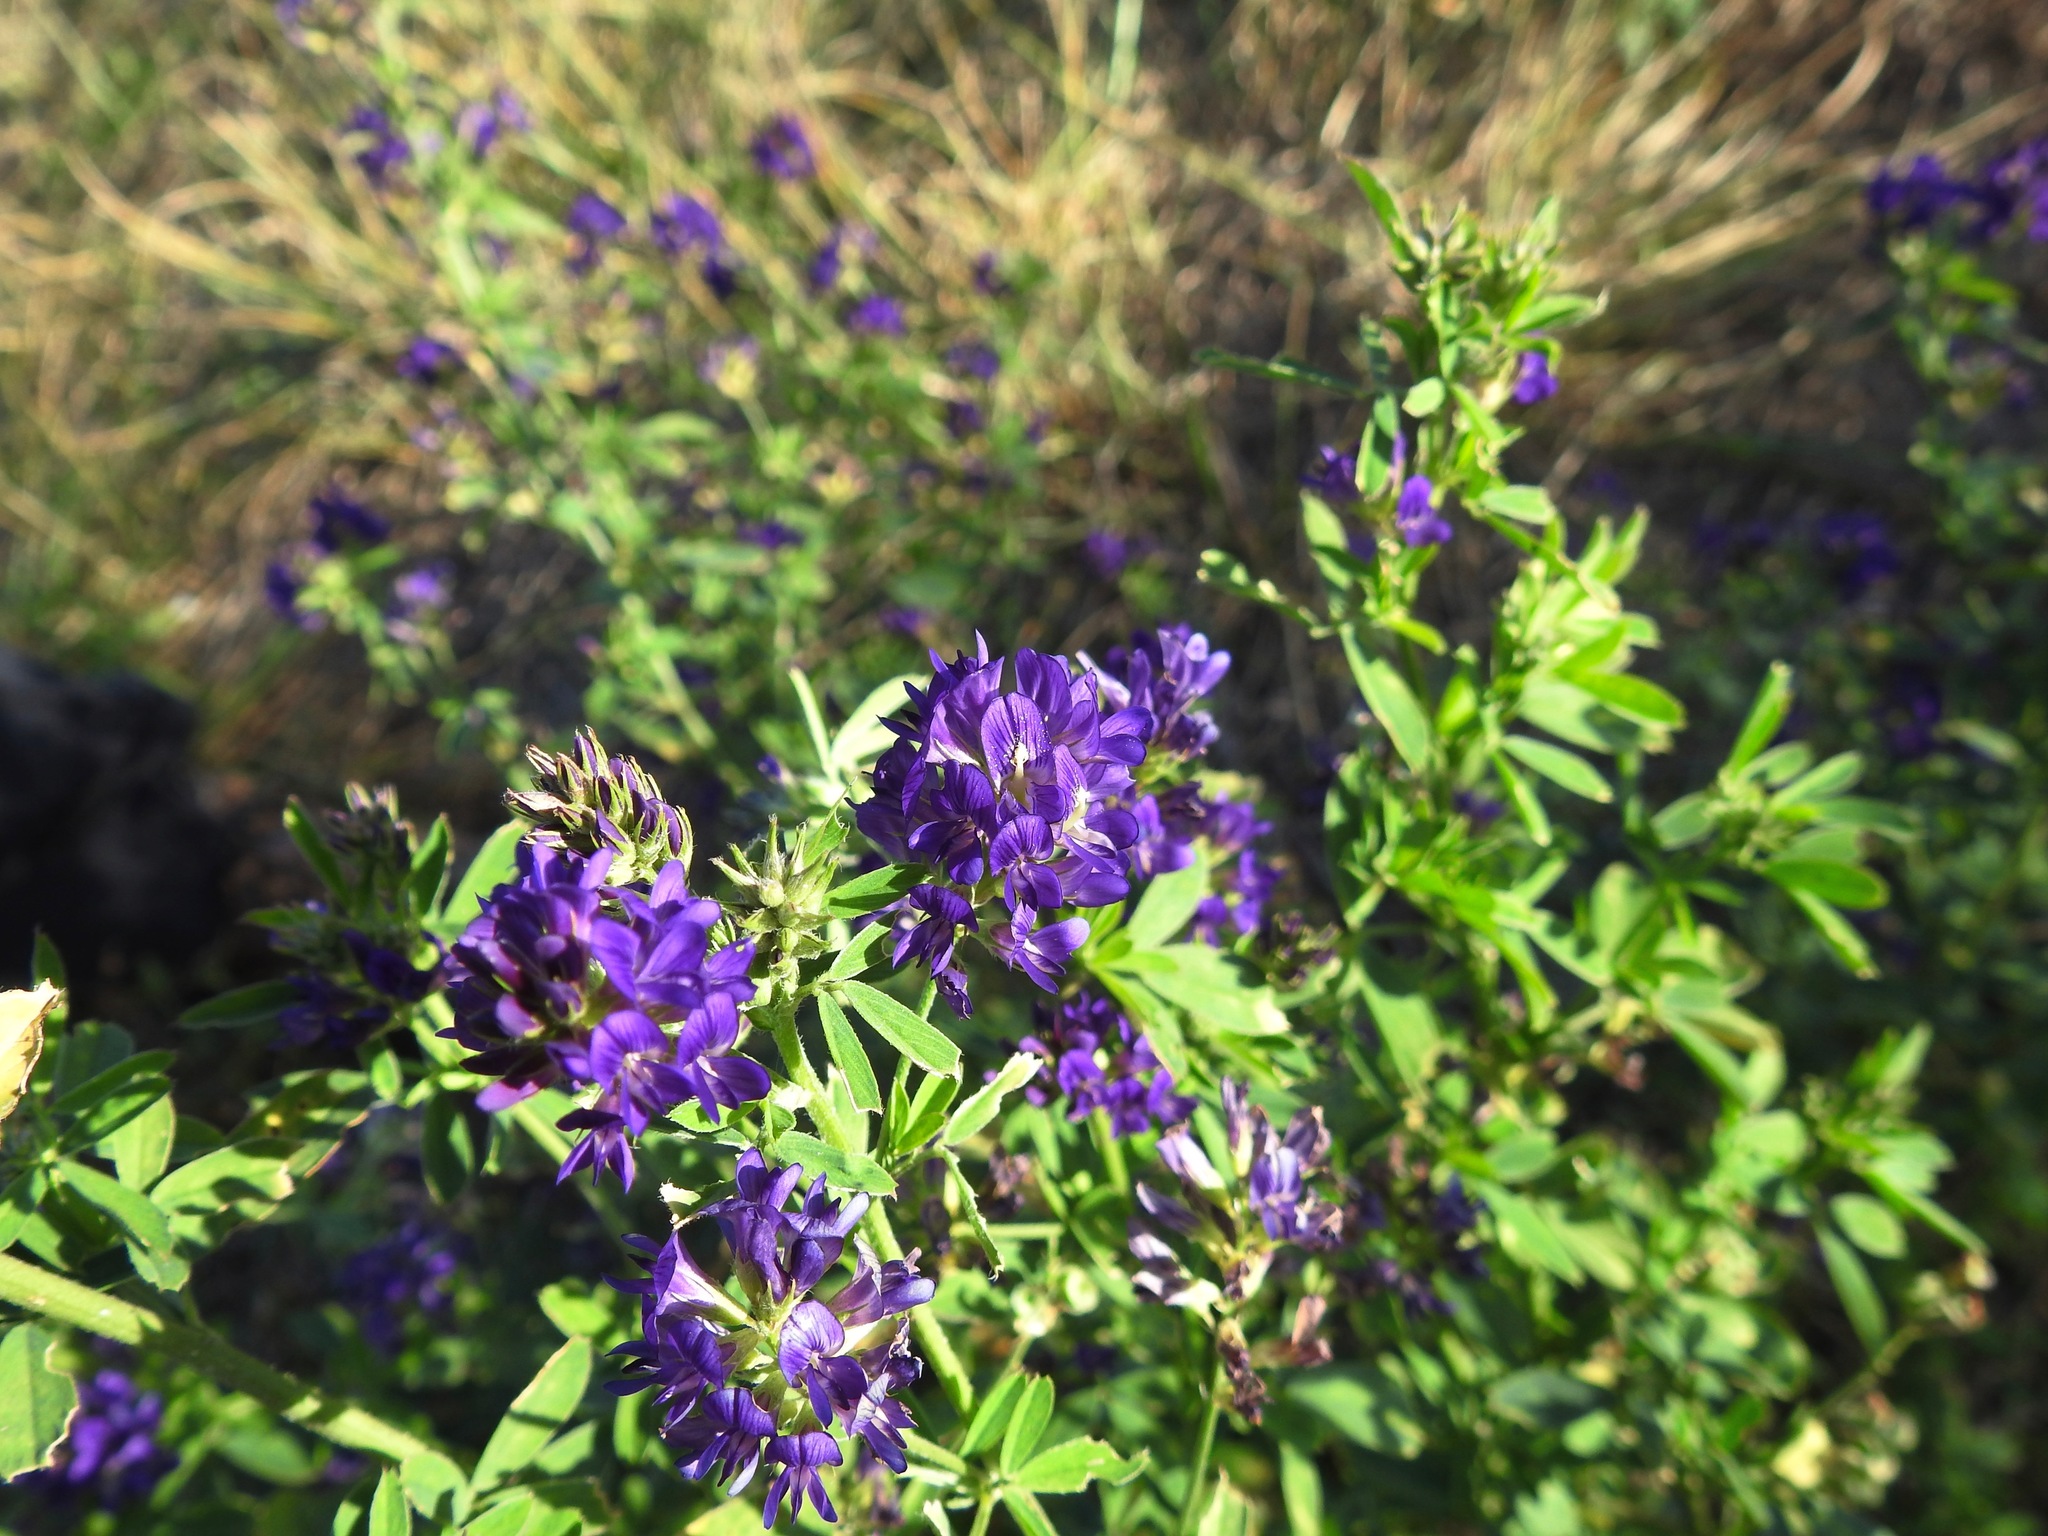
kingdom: Plantae
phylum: Tracheophyta
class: Magnoliopsida
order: Fabales
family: Fabaceae
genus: Medicago
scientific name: Medicago sativa
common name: Alfalfa
